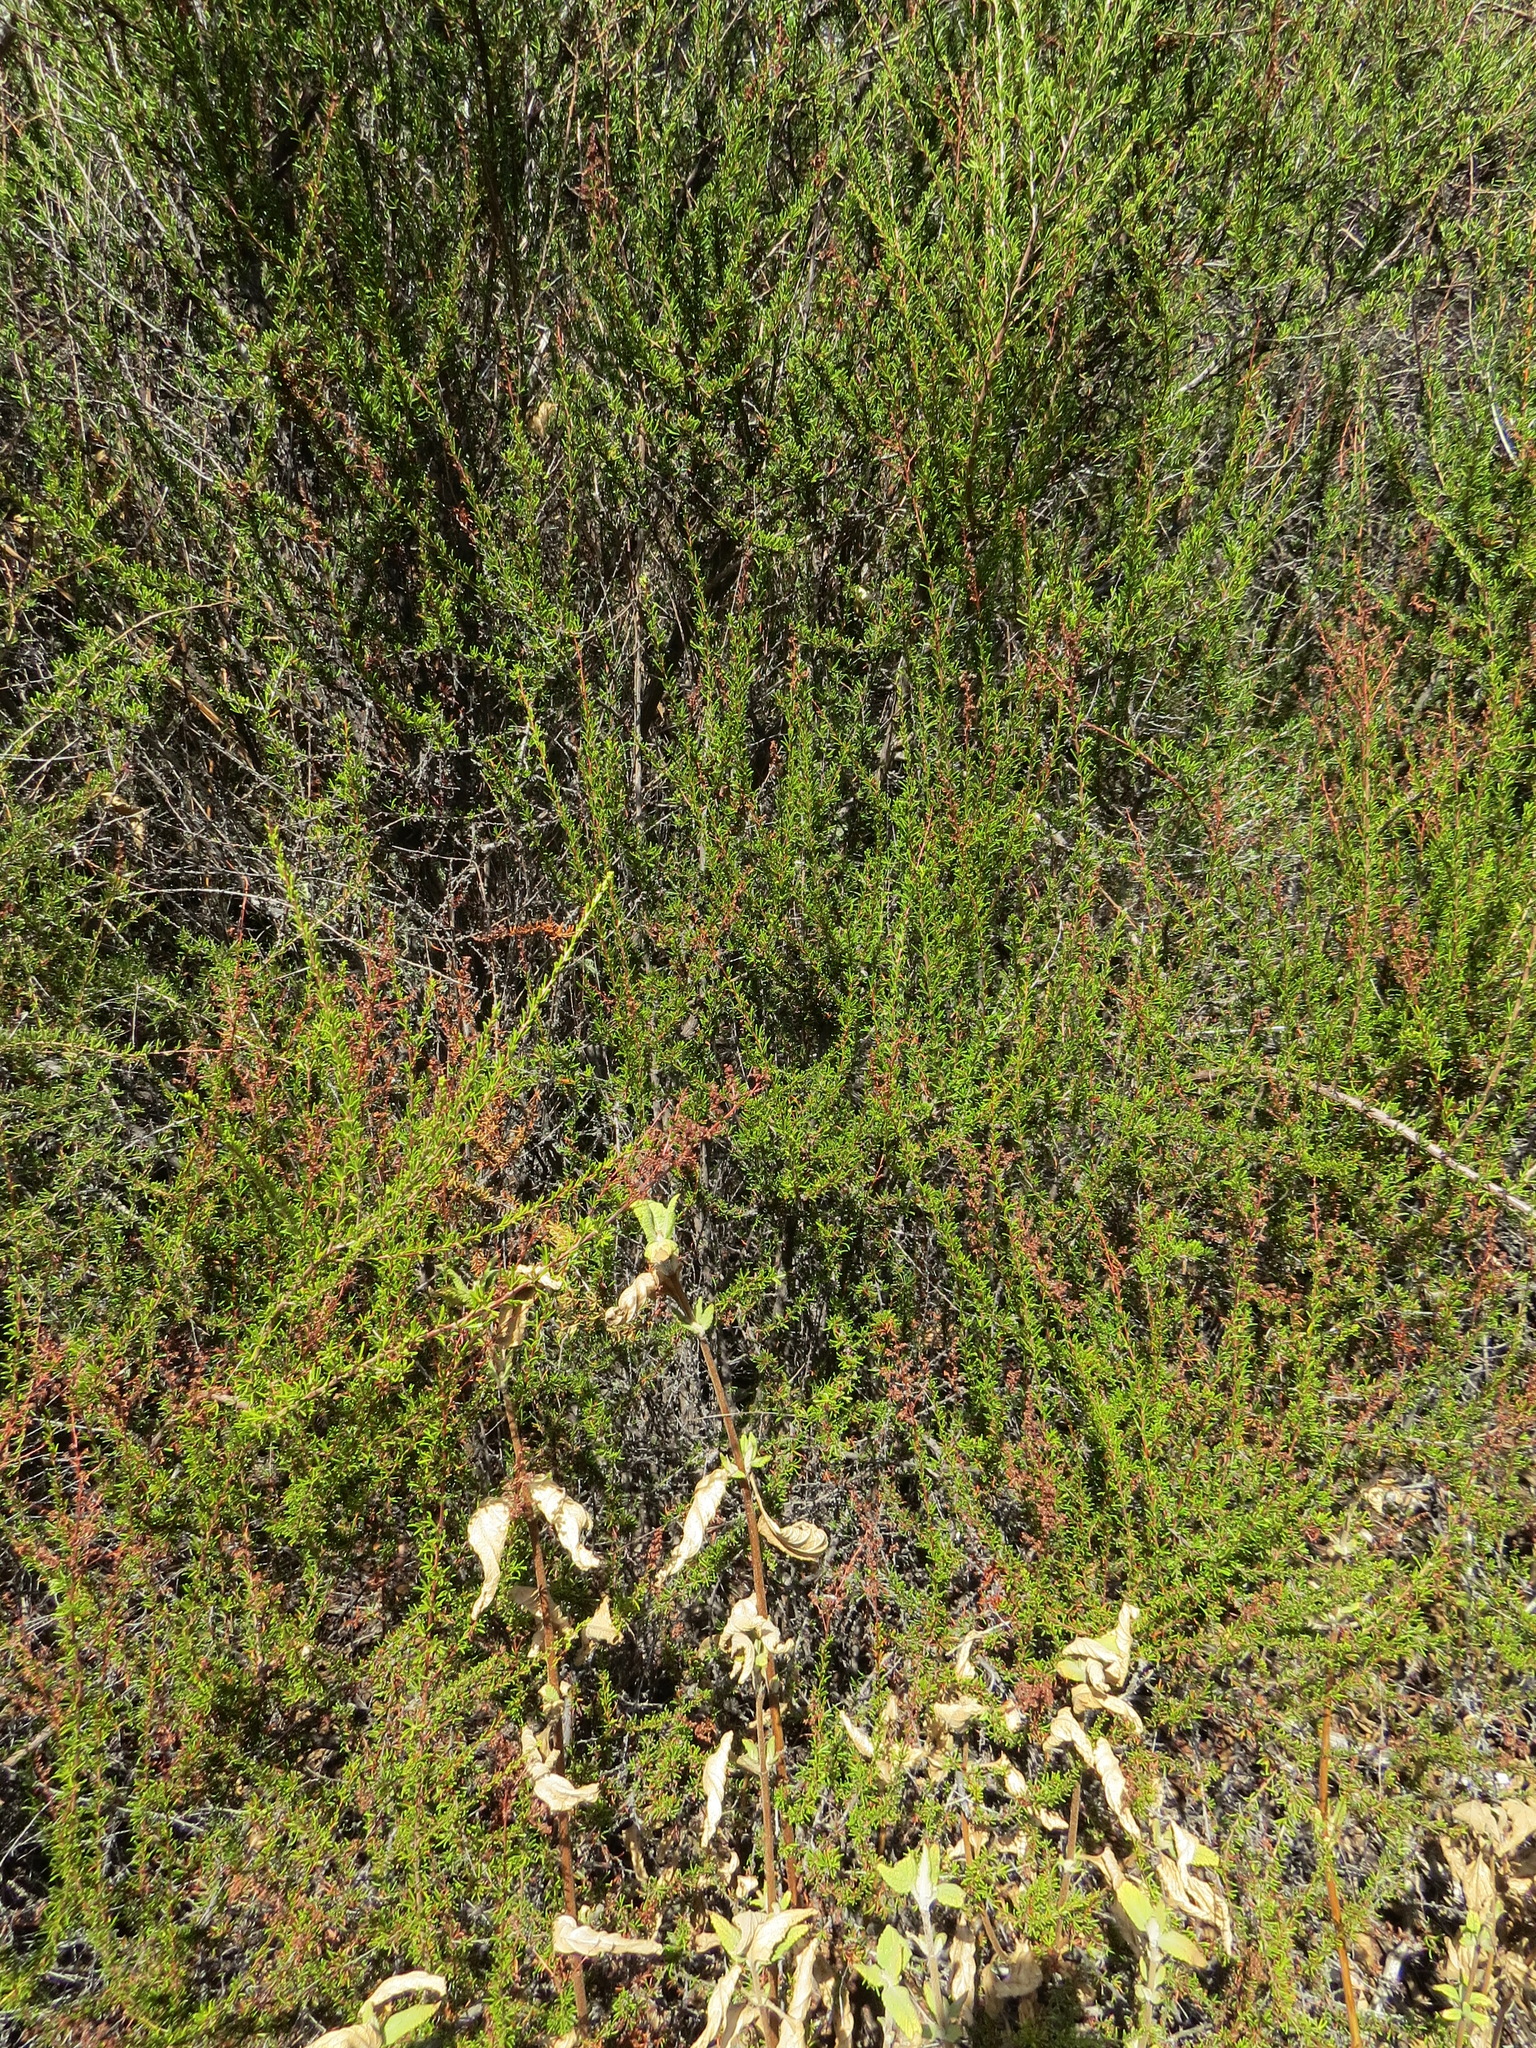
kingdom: Animalia
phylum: Arthropoda
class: Arachnida
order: Trombidiformes
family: Eriophyidae
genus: Eriophyes
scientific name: Eriophyes
